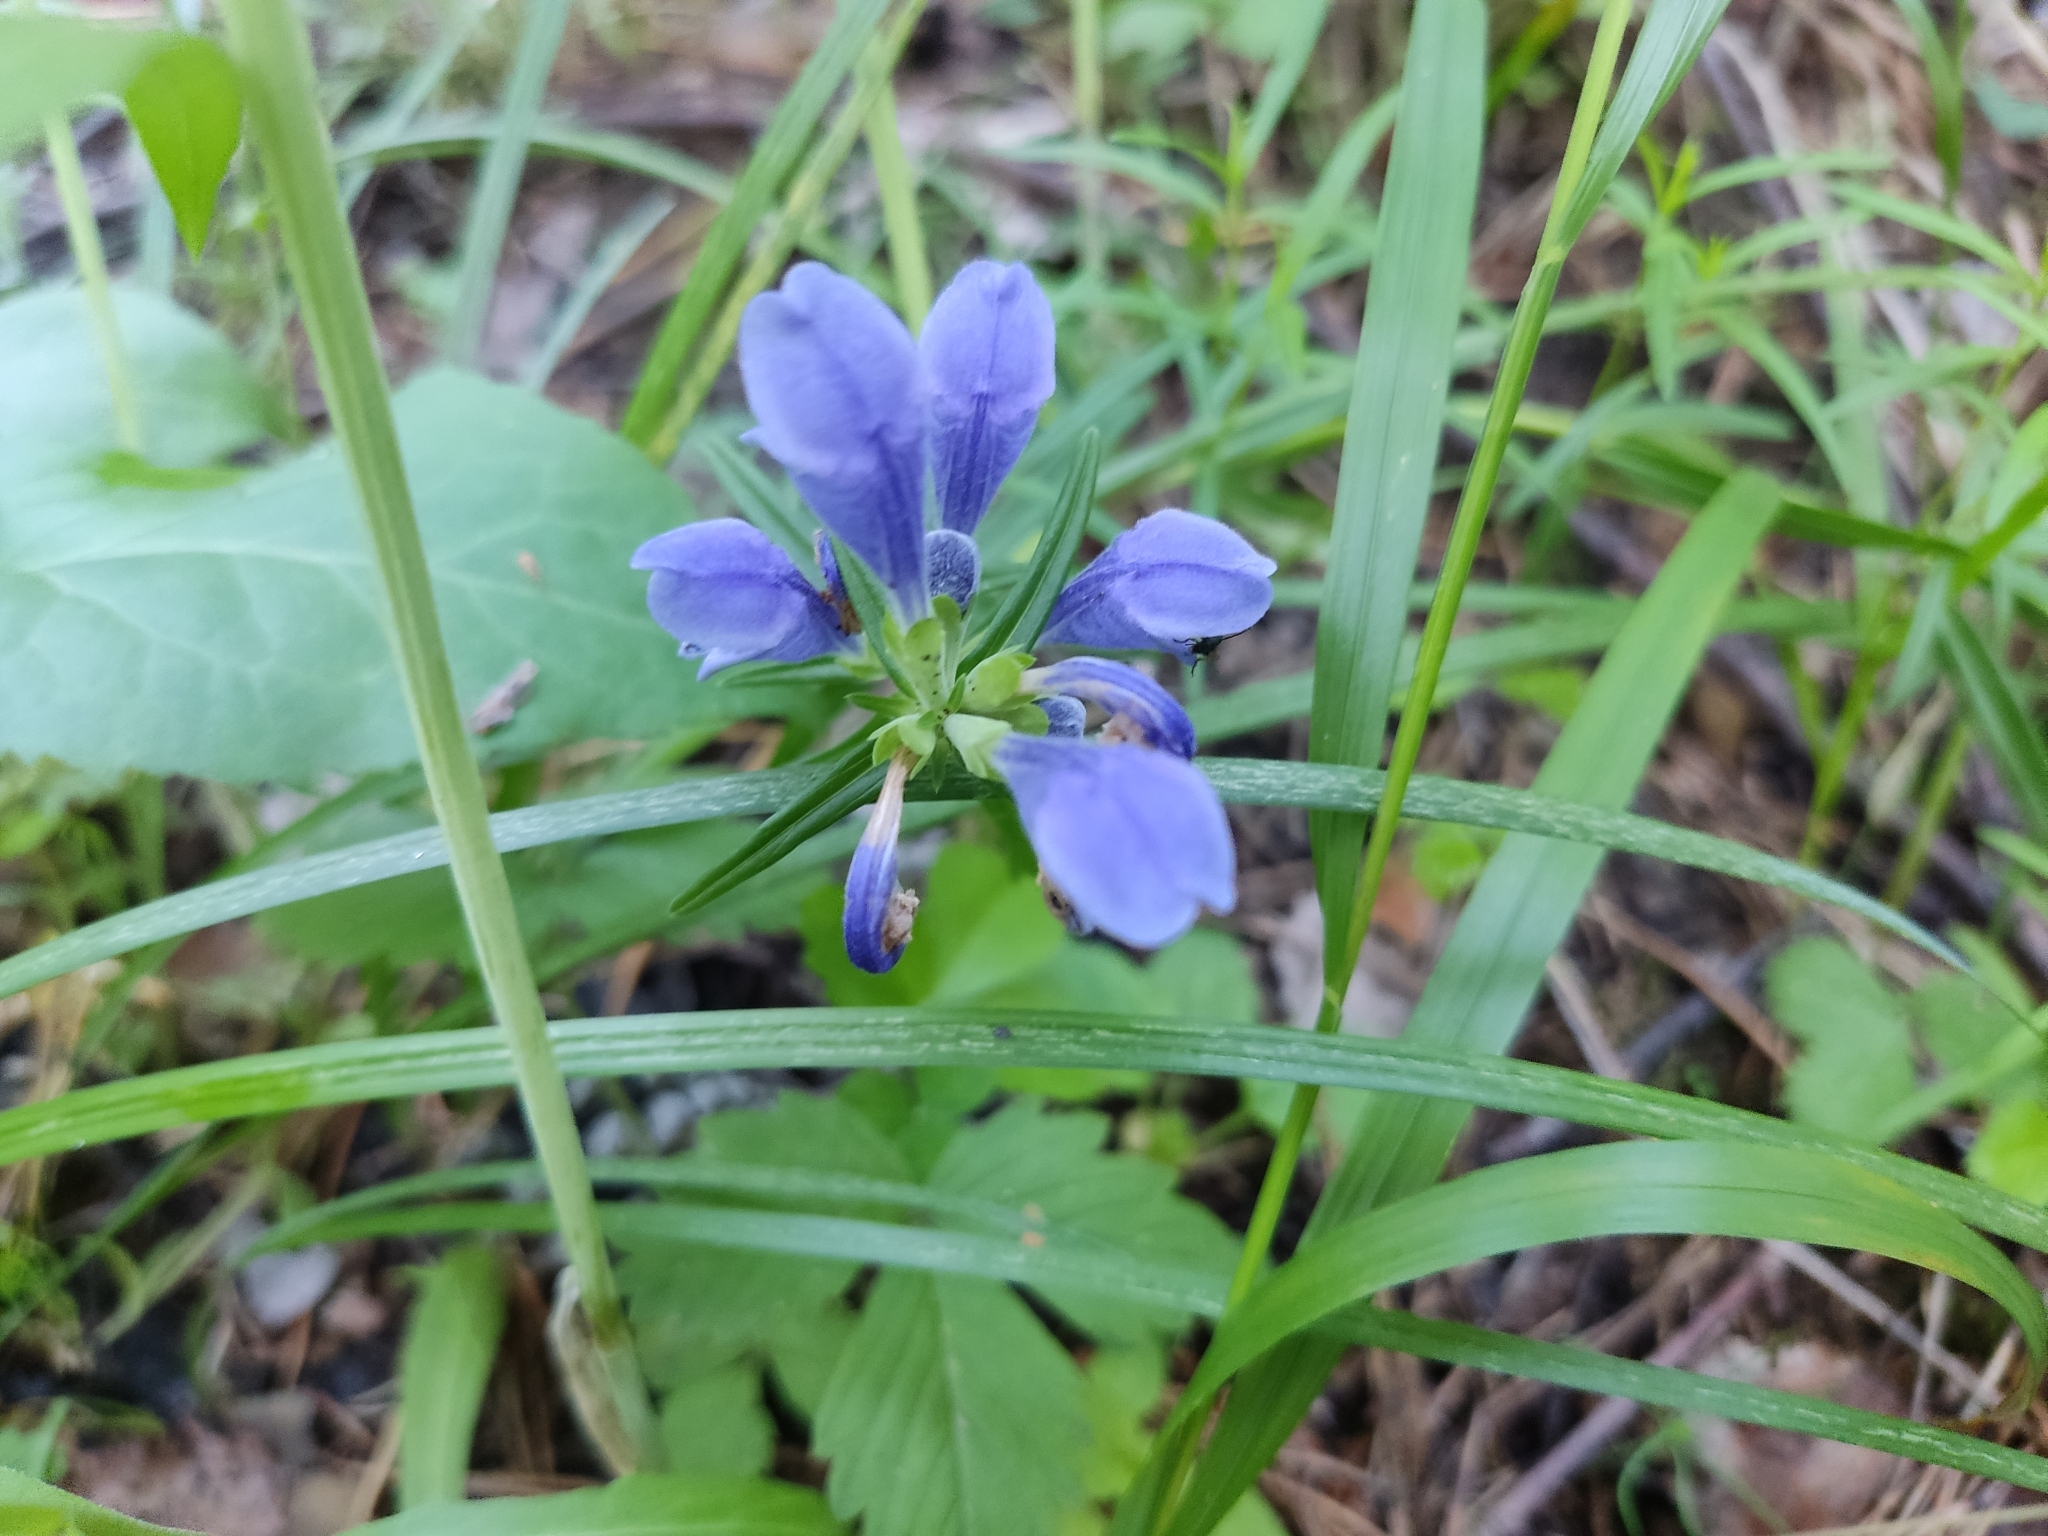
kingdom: Plantae
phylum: Tracheophyta
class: Magnoliopsida
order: Lamiales
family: Lamiaceae
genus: Dracocephalum
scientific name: Dracocephalum ruyschiana
